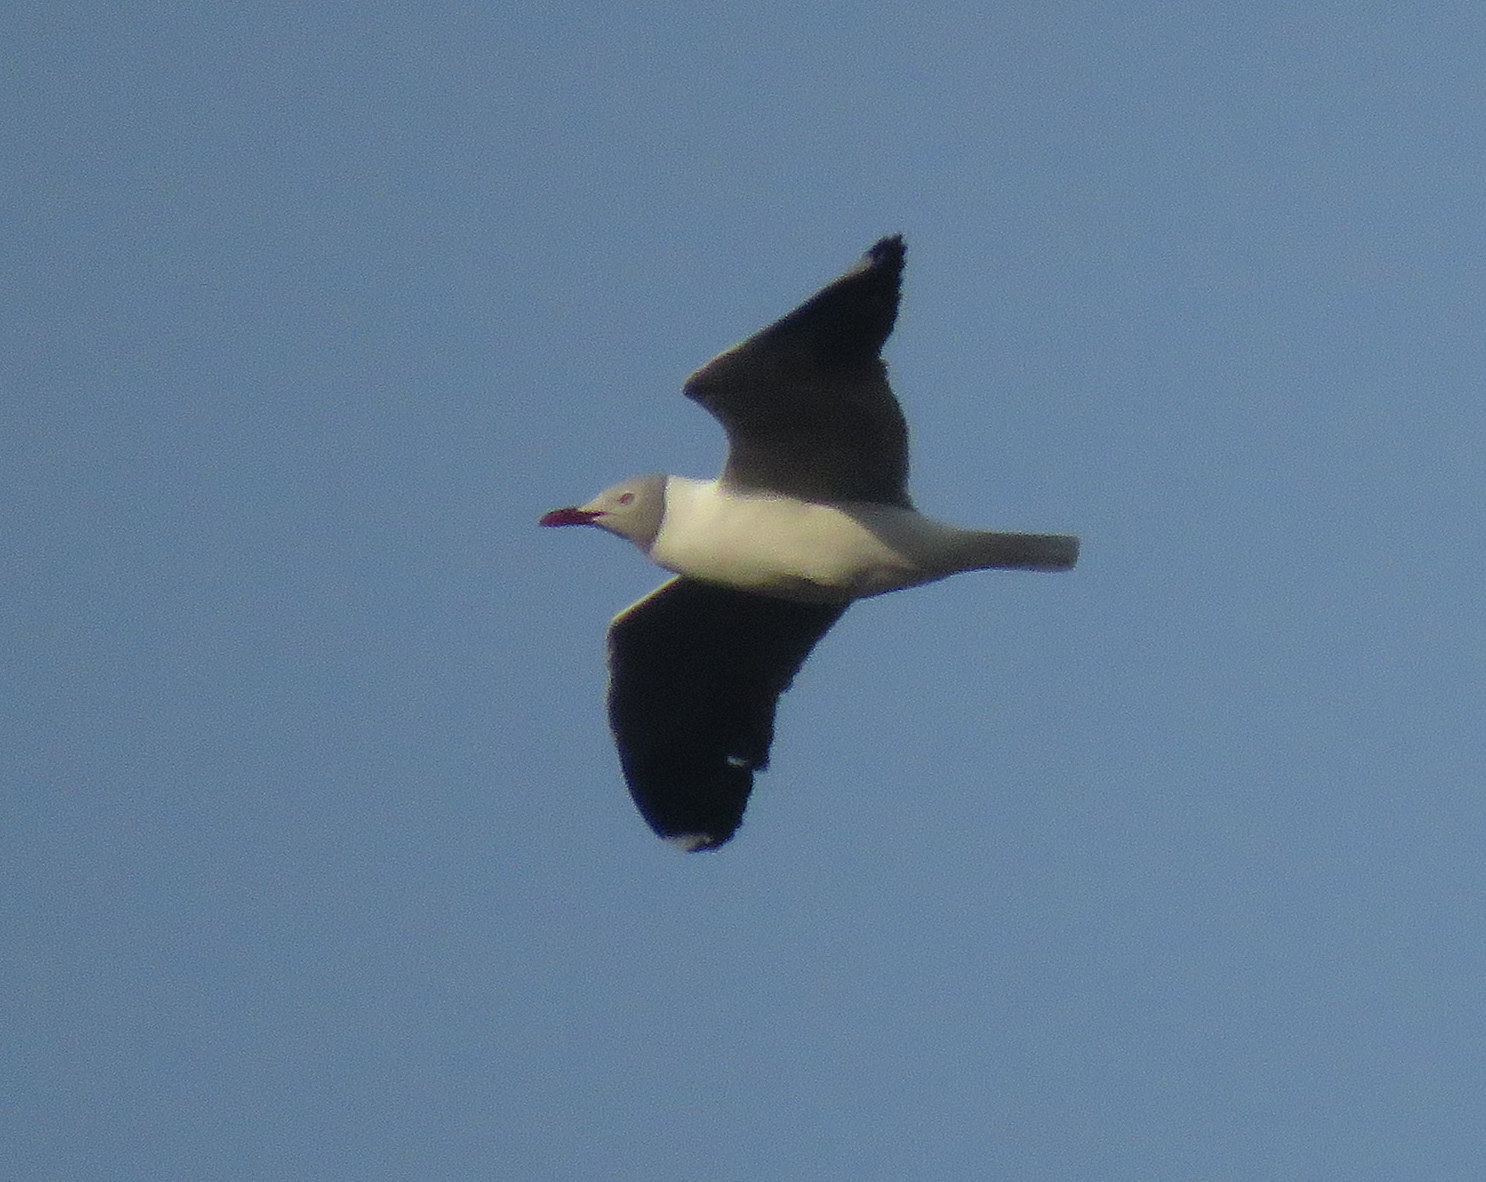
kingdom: Animalia
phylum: Chordata
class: Aves
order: Charadriiformes
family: Laridae
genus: Chroicocephalus
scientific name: Chroicocephalus cirrocephalus
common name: Grey-headed gull
